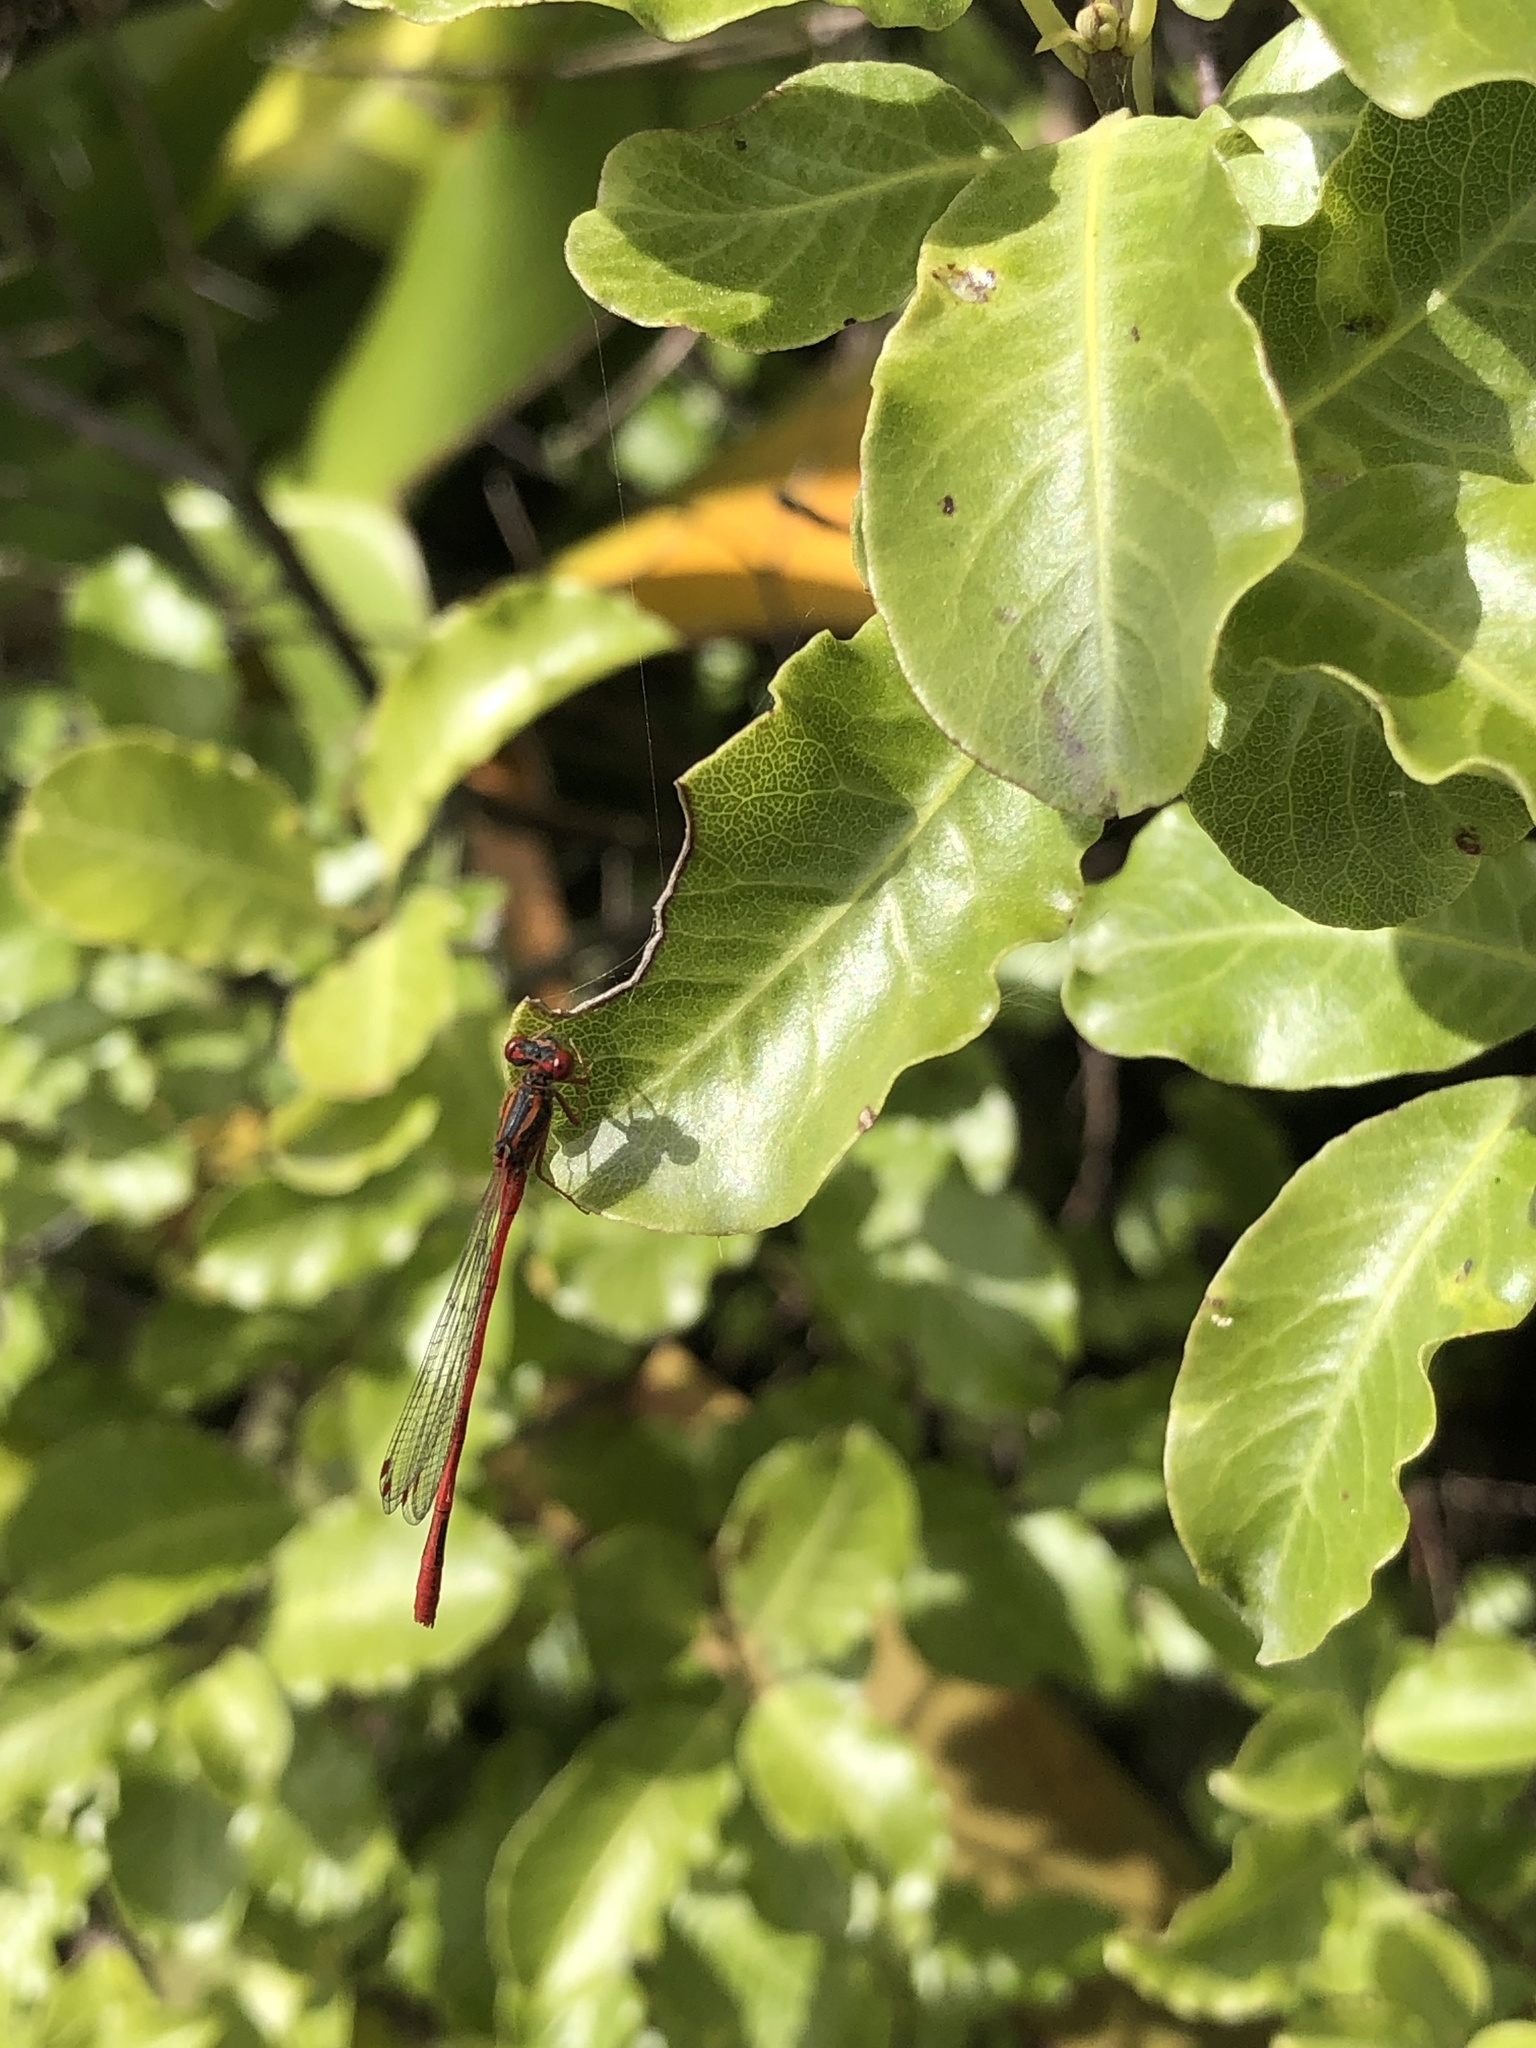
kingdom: Animalia
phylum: Arthropoda
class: Insecta
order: Odonata
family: Coenagrionidae
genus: Xanthocnemis
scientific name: Xanthocnemis zealandica
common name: Common redcoat damselfly
